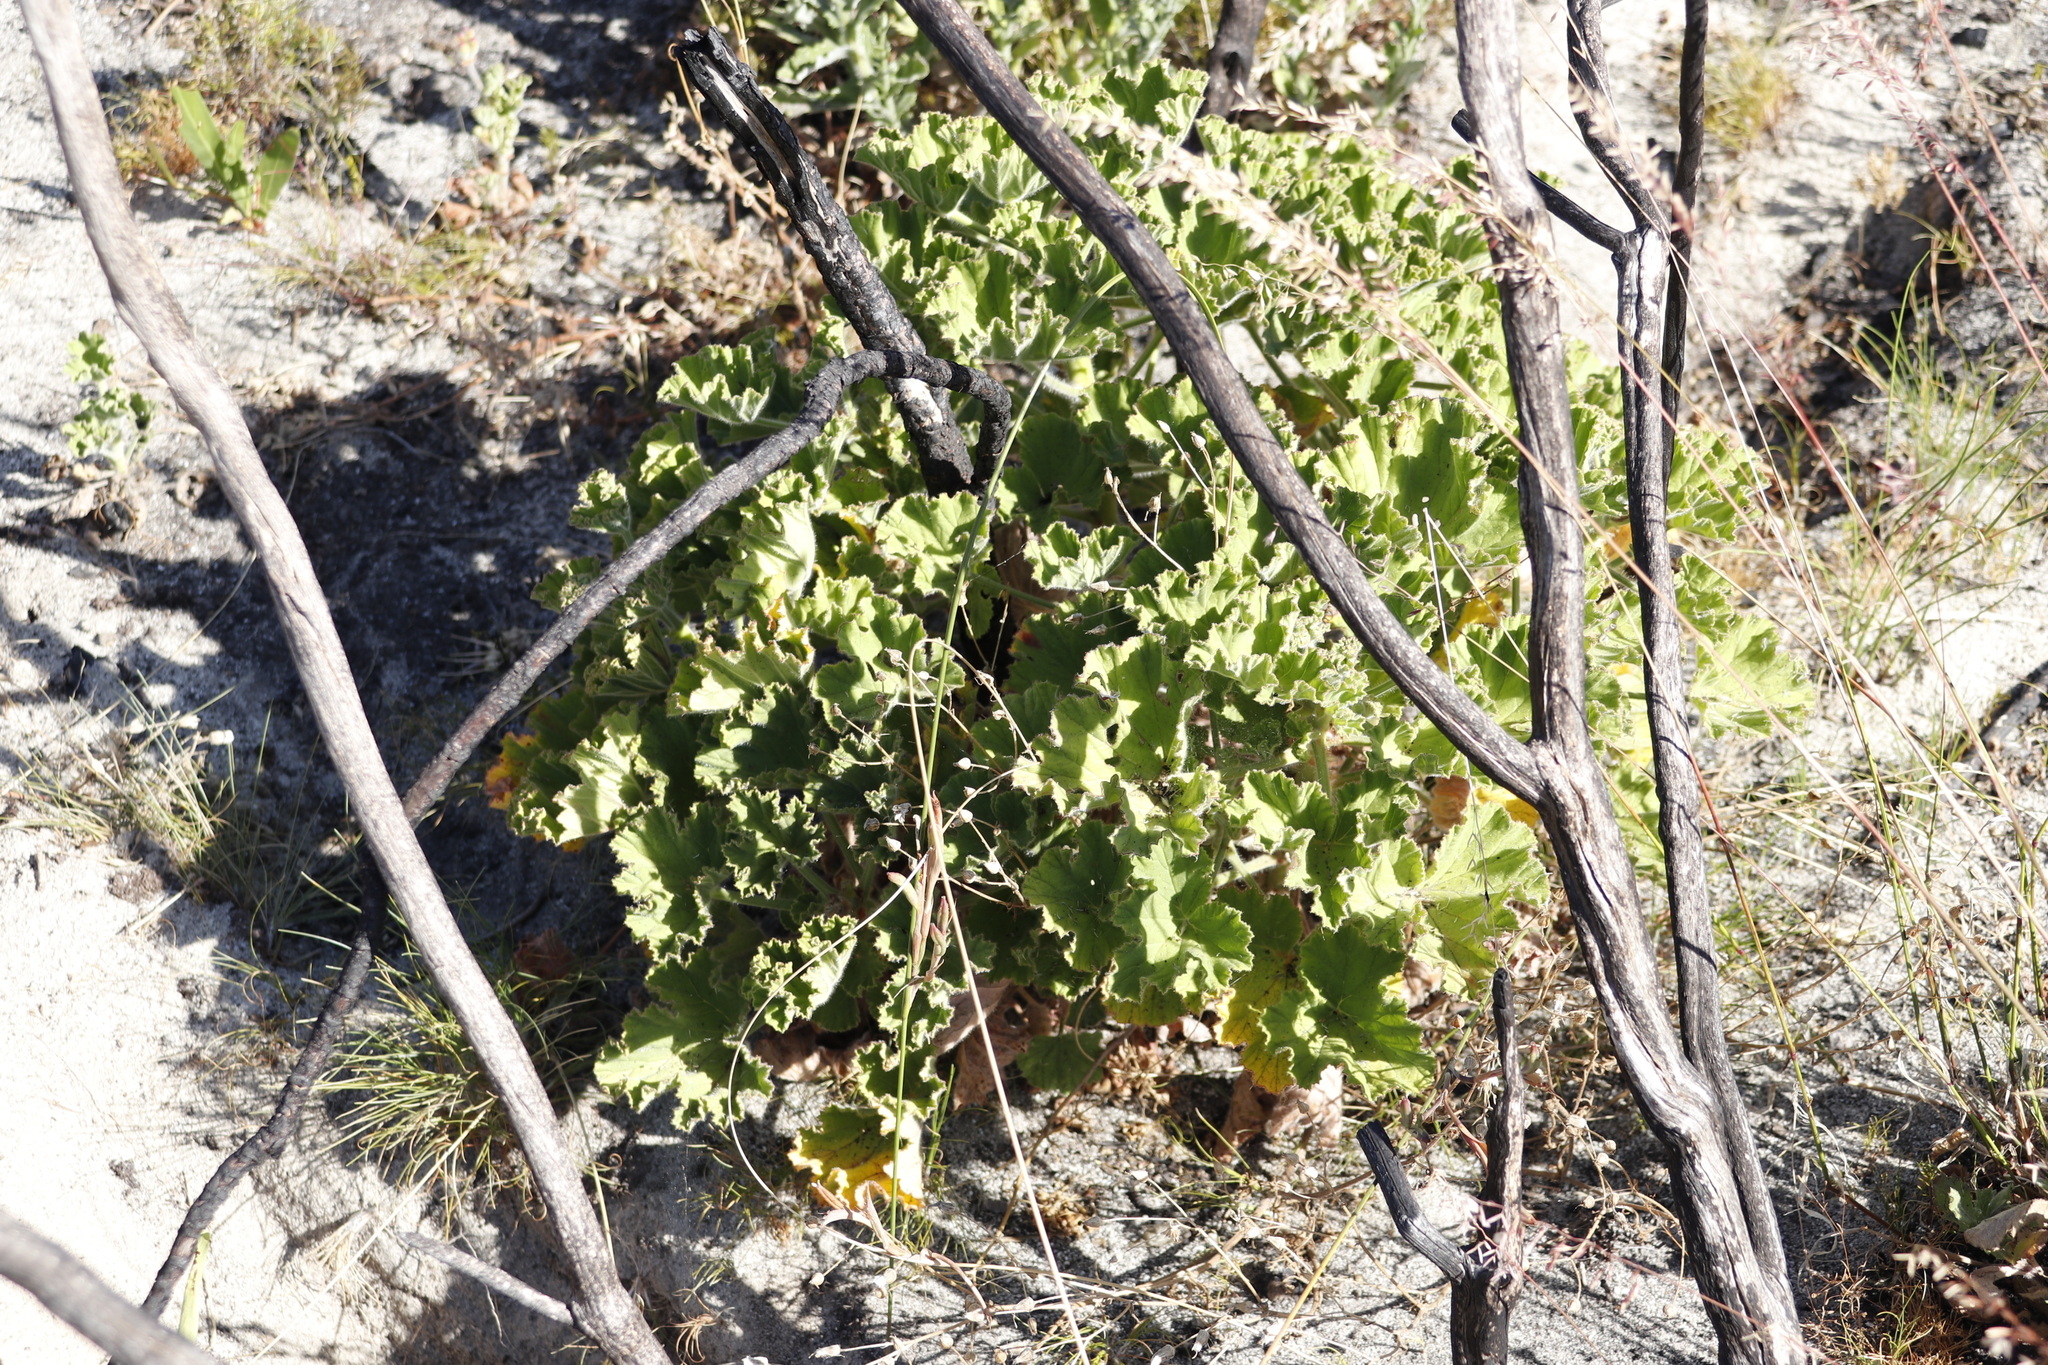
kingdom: Plantae
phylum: Tracheophyta
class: Magnoliopsida
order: Geraniales
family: Geraniaceae
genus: Pelargonium
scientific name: Pelargonium cucullatum
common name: Tree pelargonium
